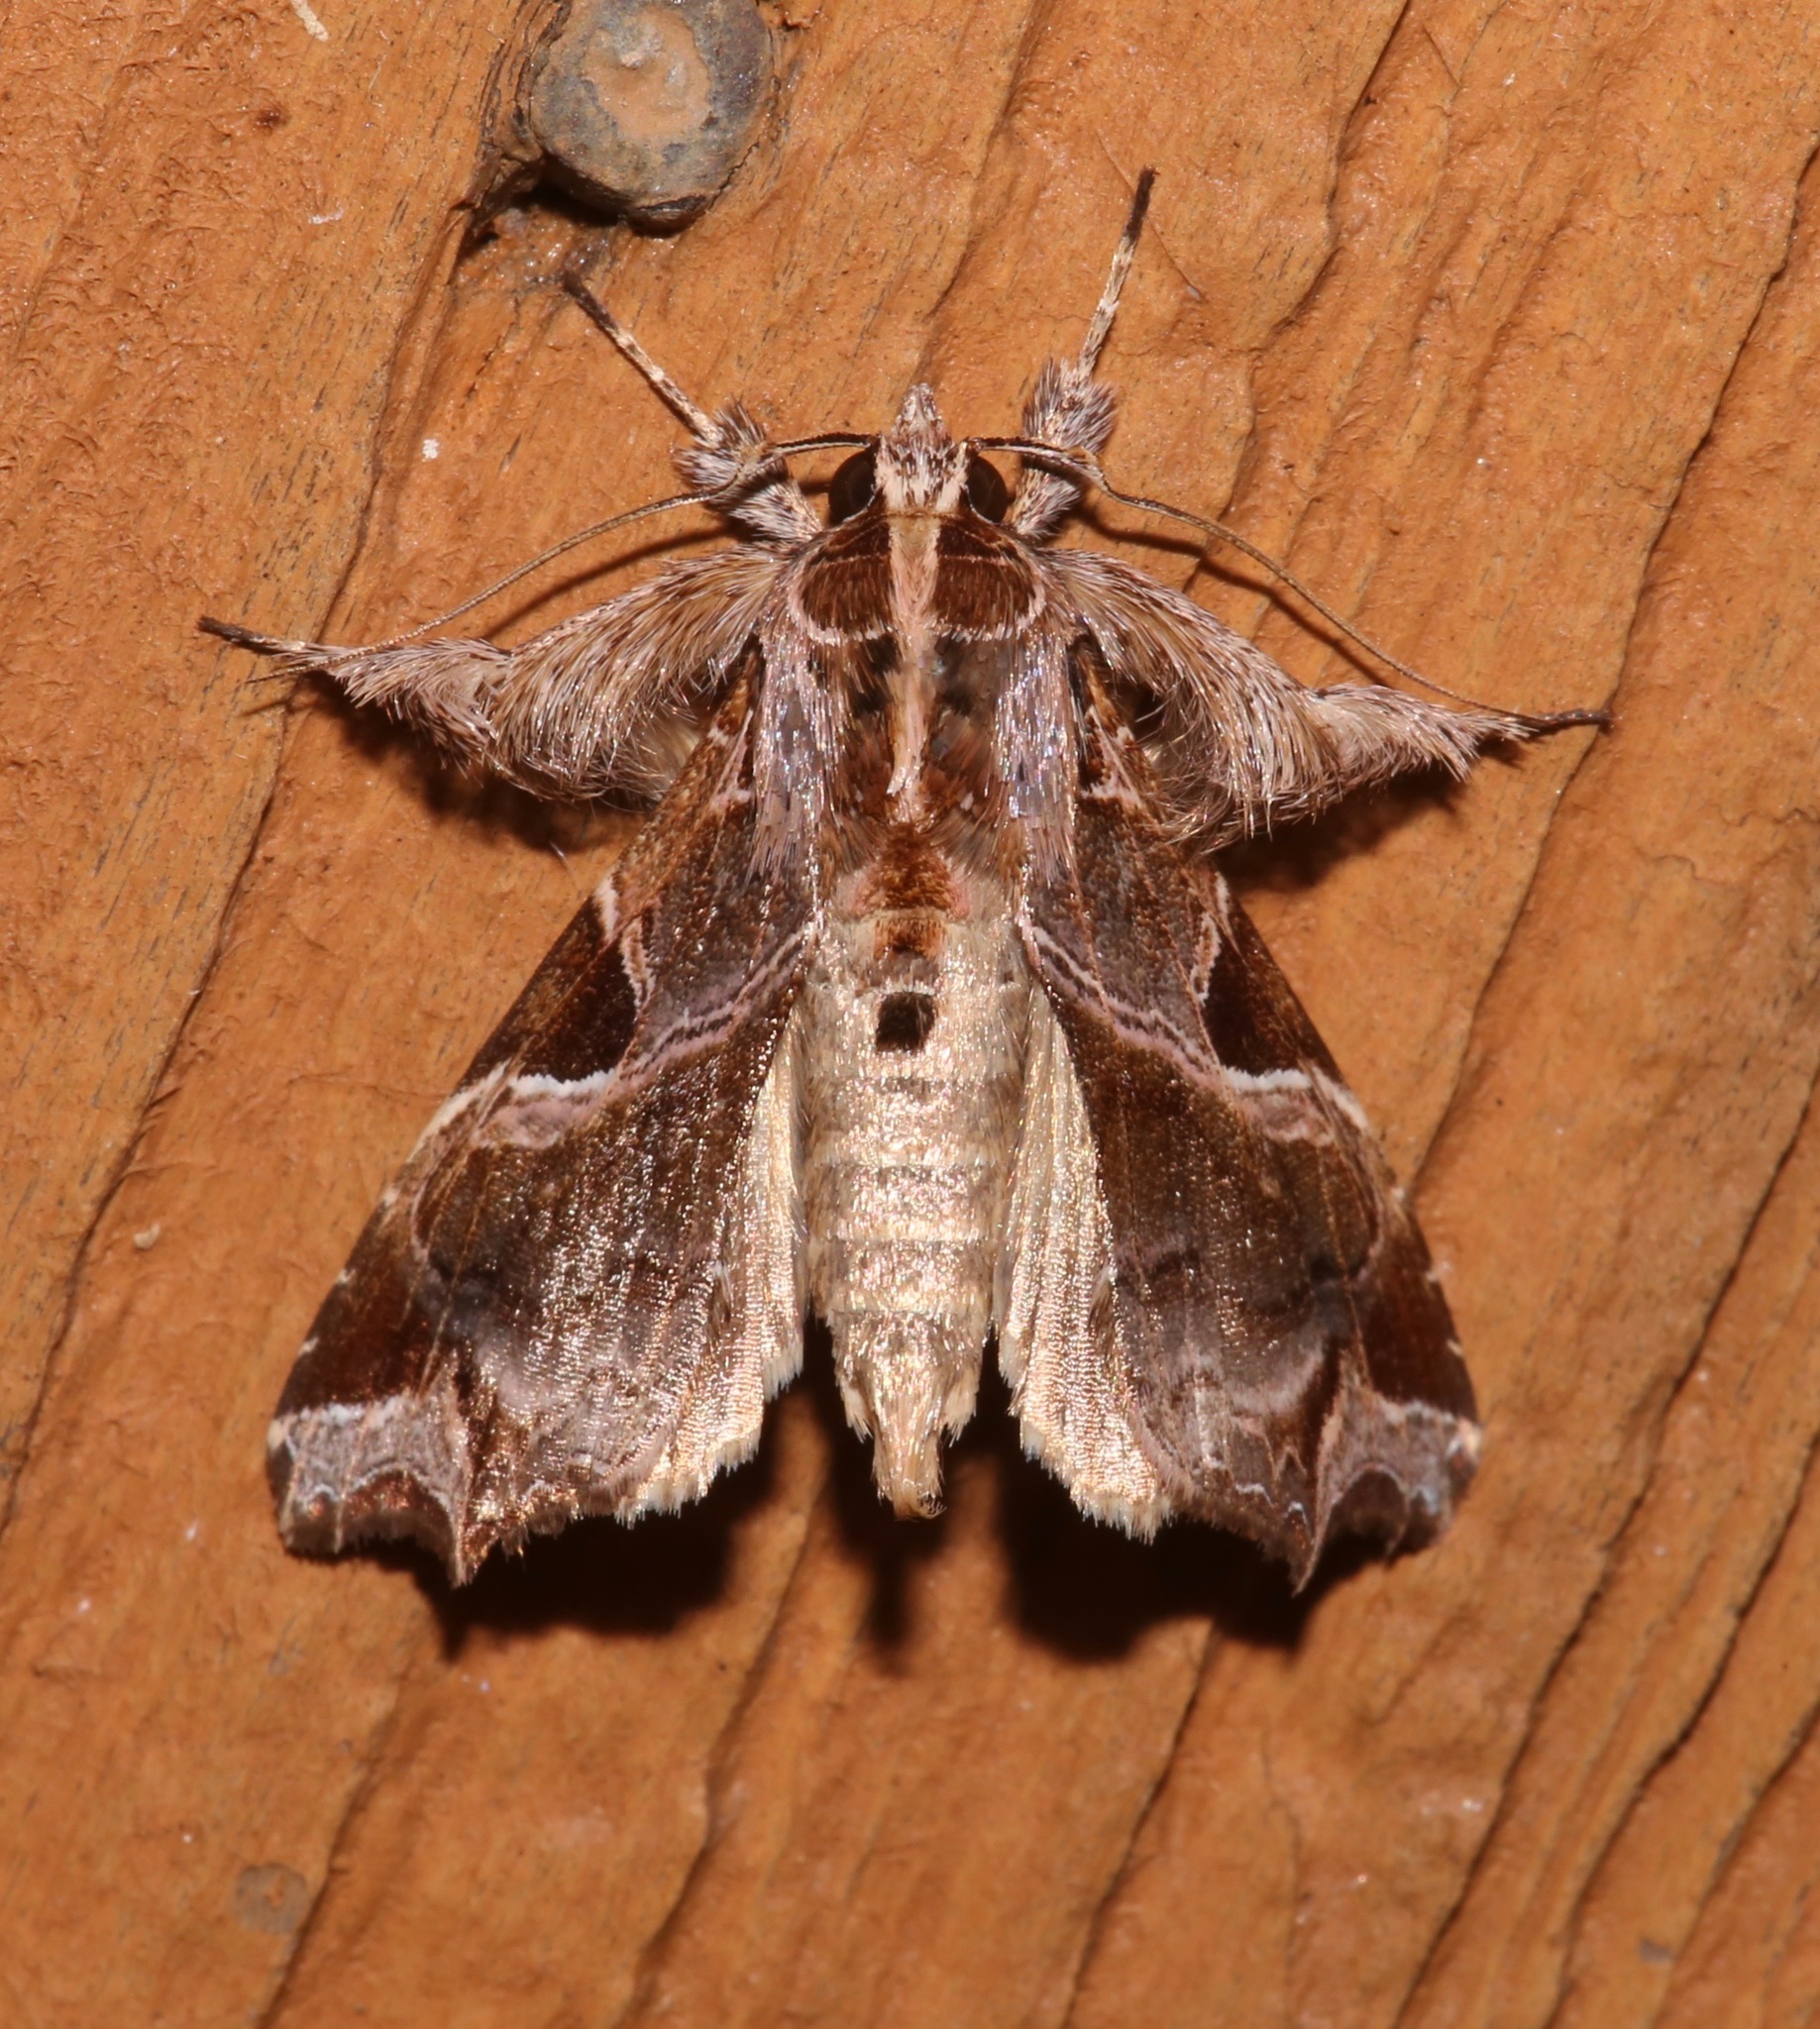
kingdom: Animalia
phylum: Arthropoda
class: Insecta
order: Lepidoptera
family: Noctuidae
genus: Callopistria
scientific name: Callopistria floridensis
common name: Florida fern moth
